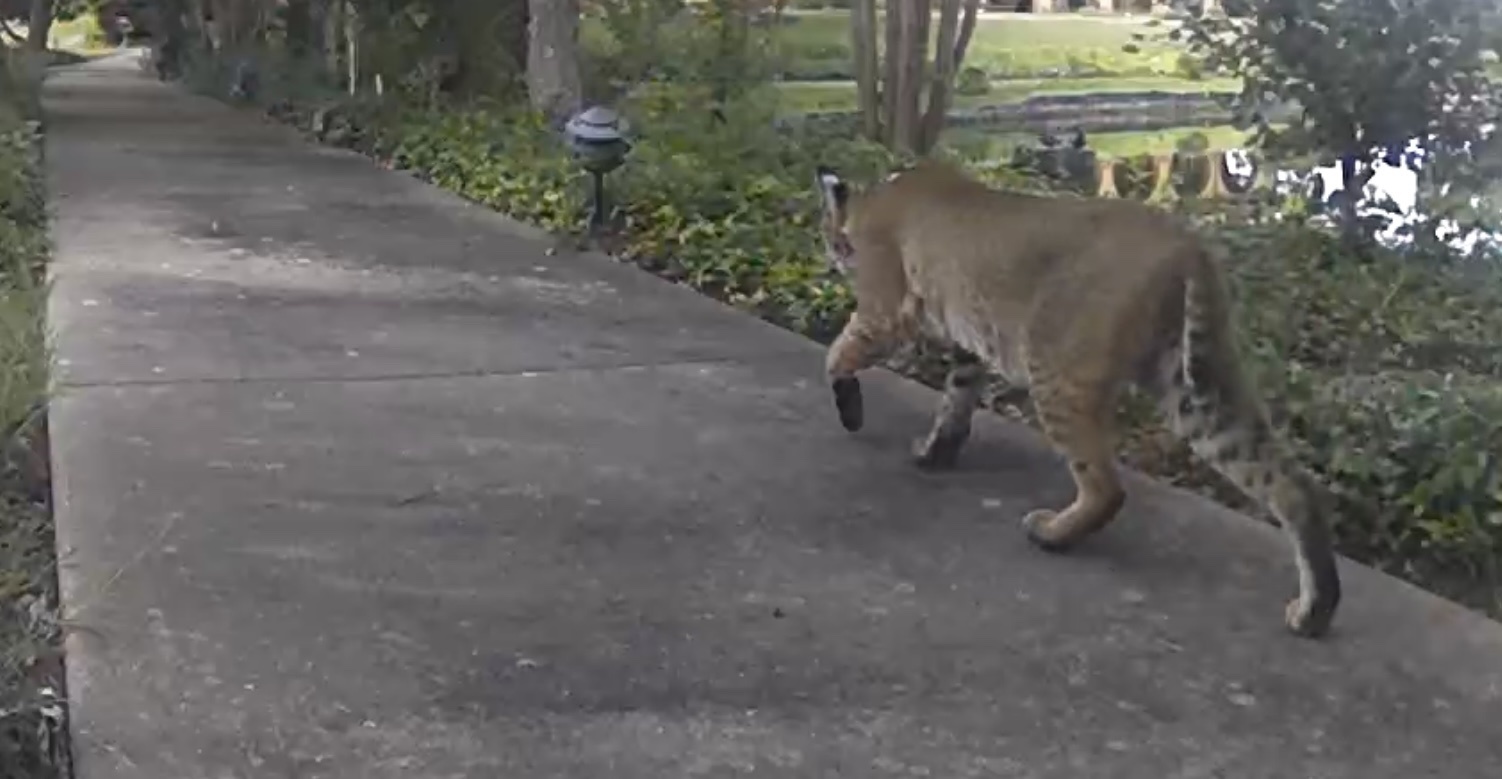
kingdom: Animalia
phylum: Chordata
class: Mammalia
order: Carnivora
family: Felidae
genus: Lynx
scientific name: Lynx rufus
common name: Bobcat
